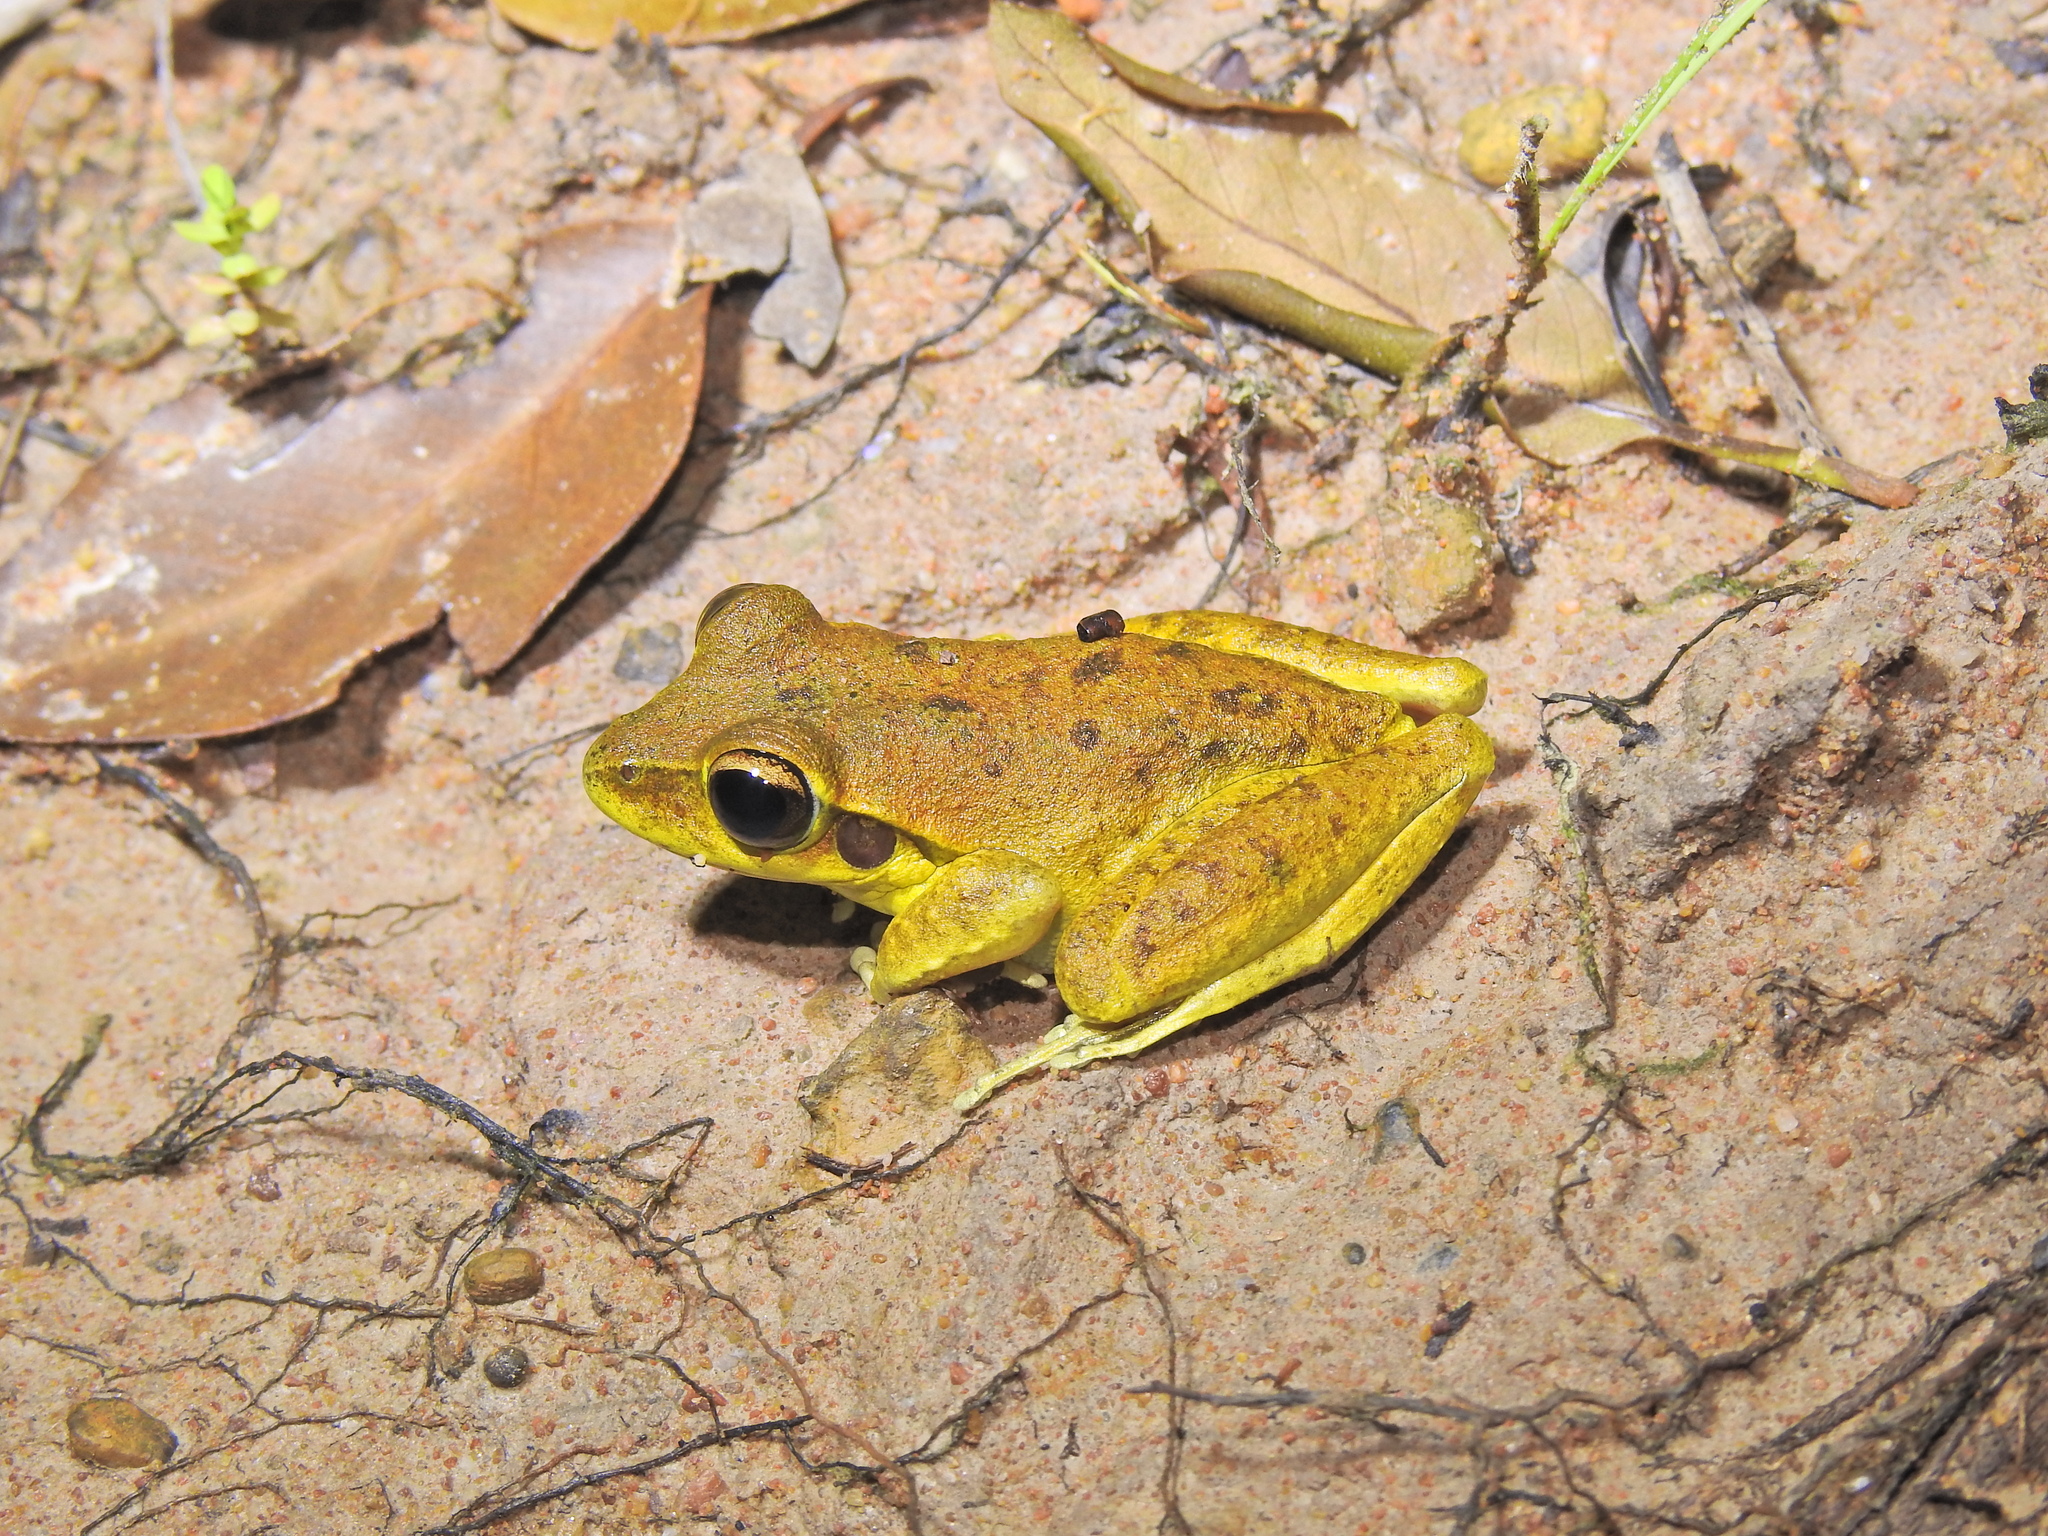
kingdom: Animalia
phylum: Chordata
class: Amphibia
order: Anura
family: Pelodryadidae
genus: Ranoidea
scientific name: Ranoidea wilcoxii
